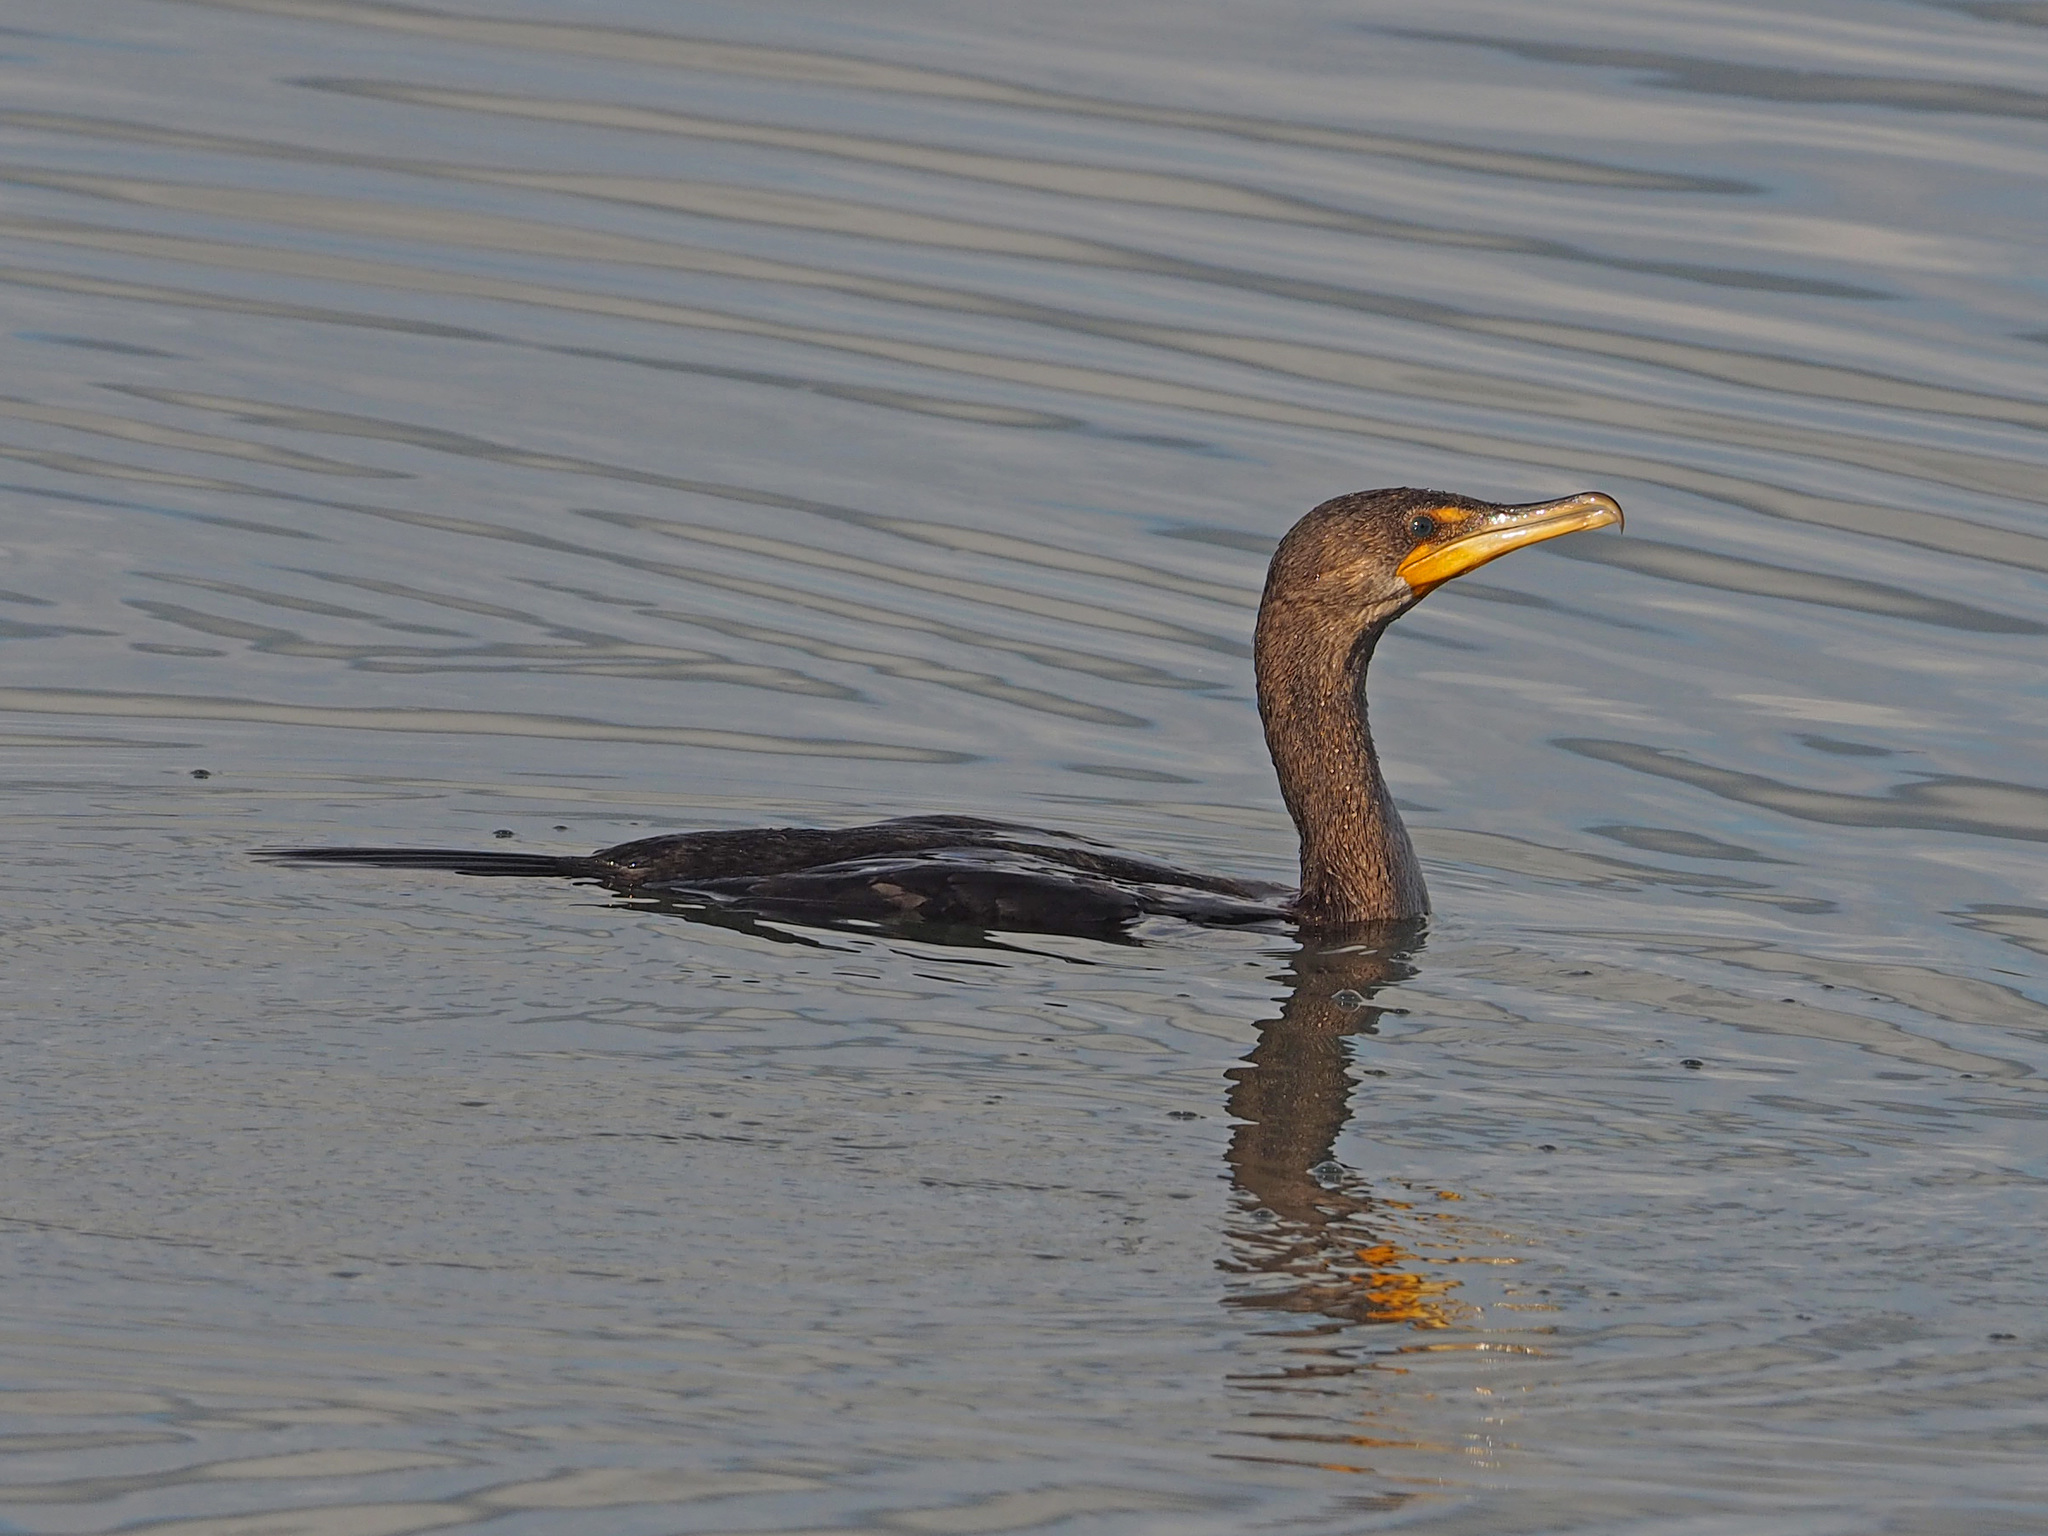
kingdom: Animalia
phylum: Chordata
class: Aves
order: Suliformes
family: Phalacrocoracidae
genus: Phalacrocorax
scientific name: Phalacrocorax auritus
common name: Double-crested cormorant
